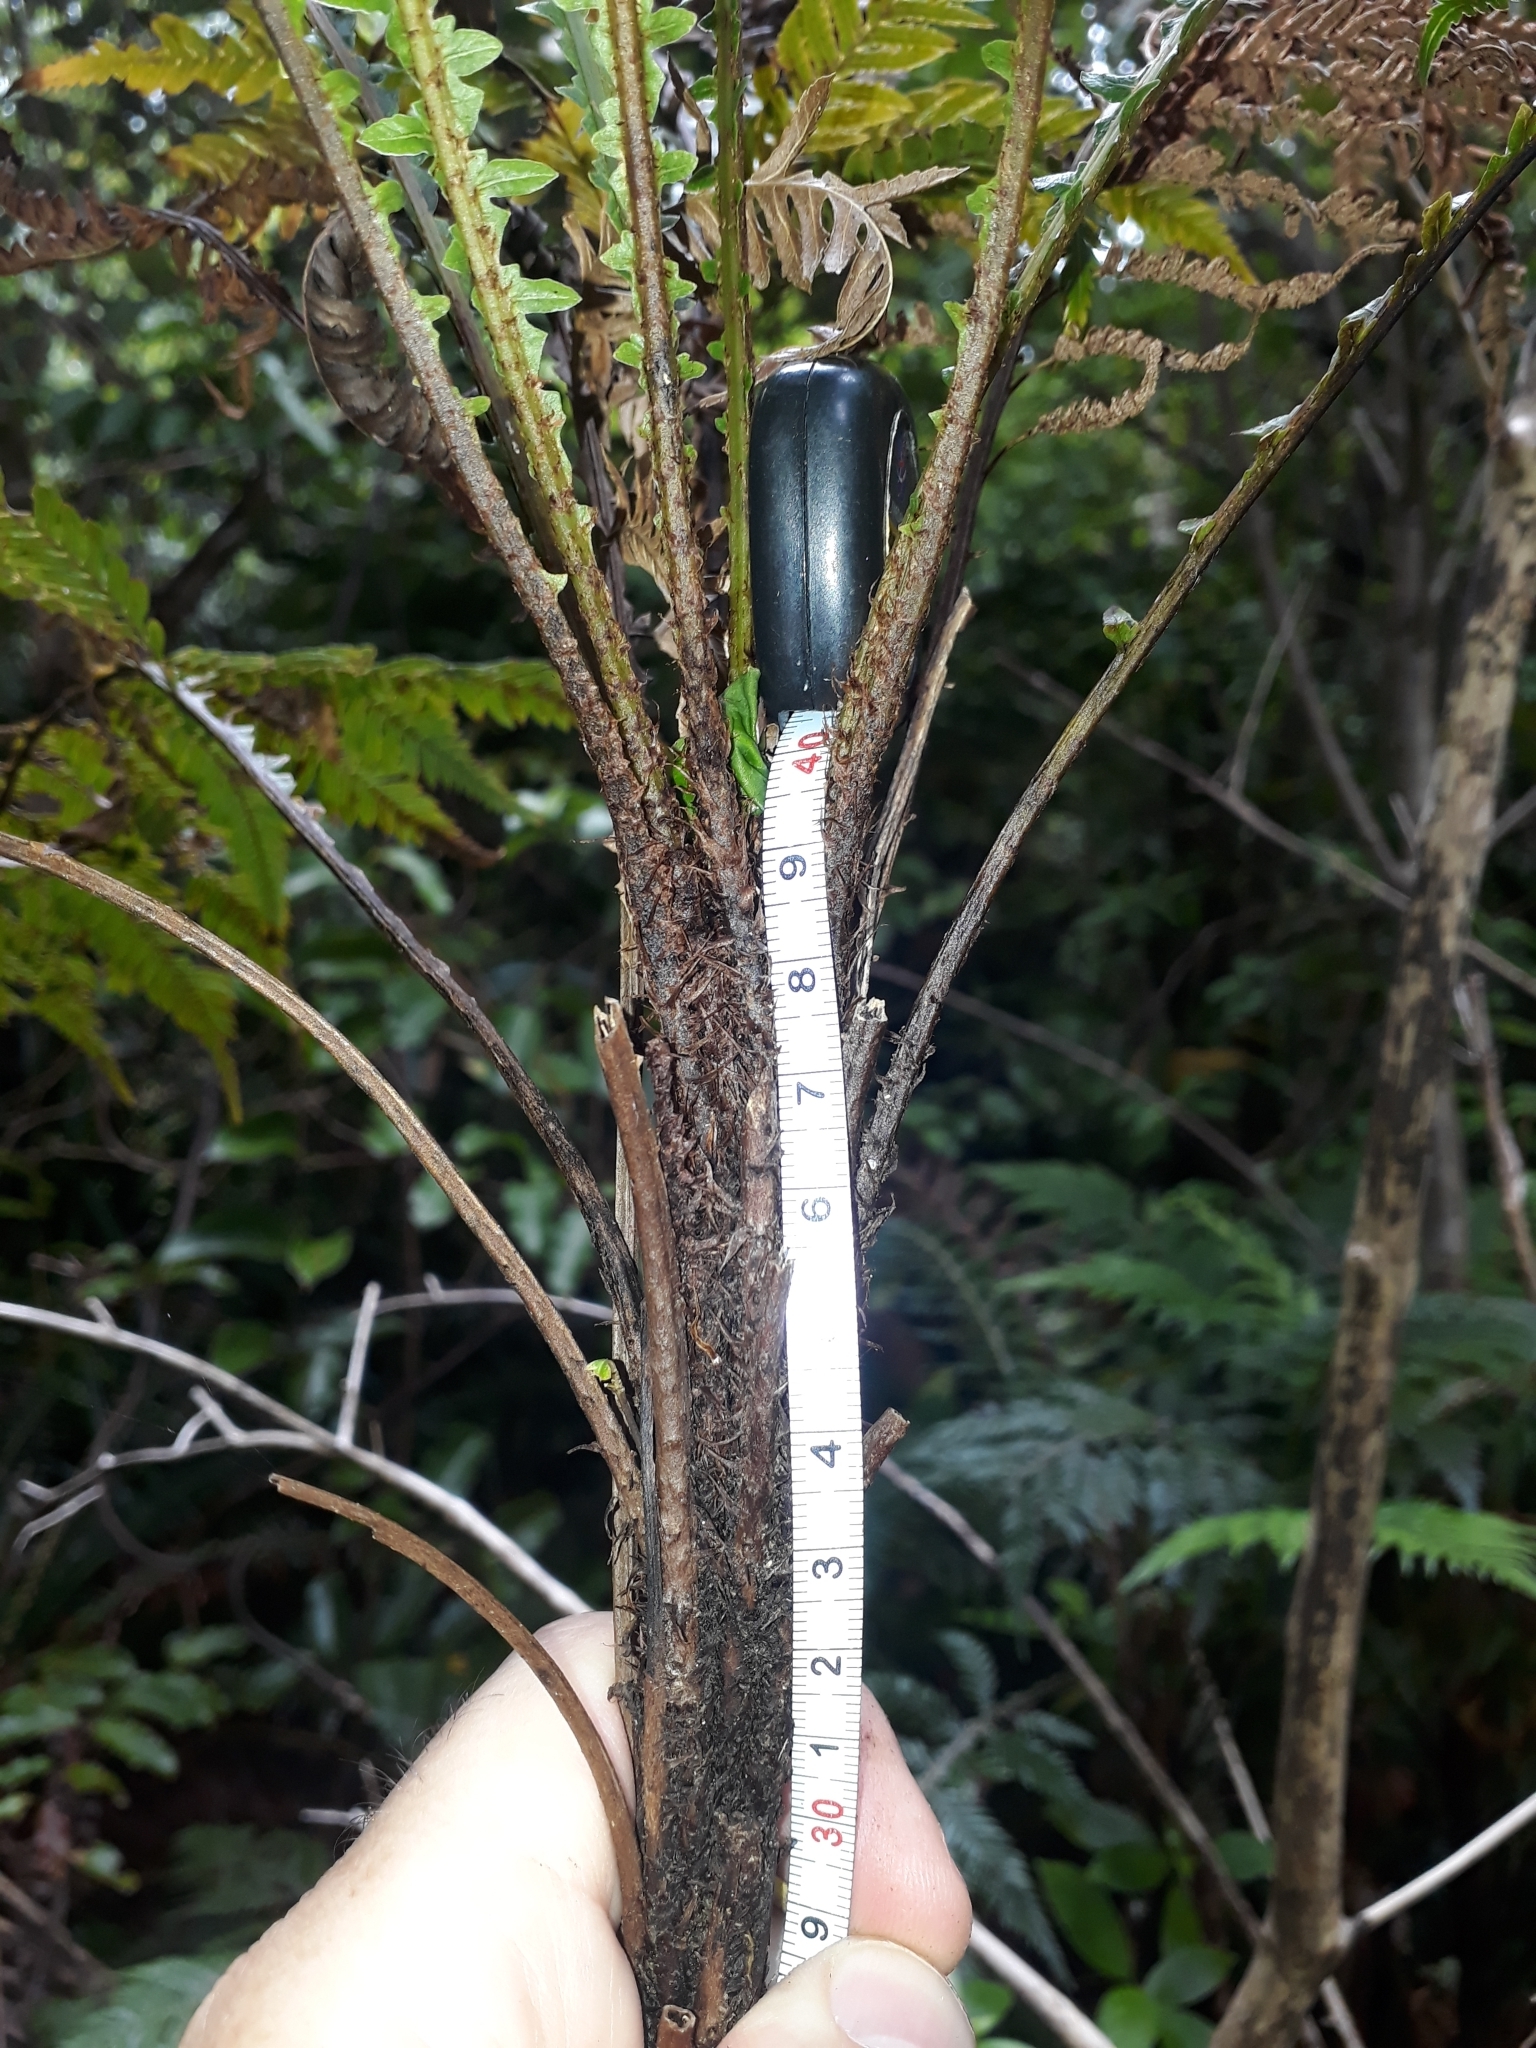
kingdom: Plantae
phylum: Tracheophyta
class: Polypodiopsida
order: Polypodiales
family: Blechnaceae
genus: Diploblechnum
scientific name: Diploblechnum fraseri
